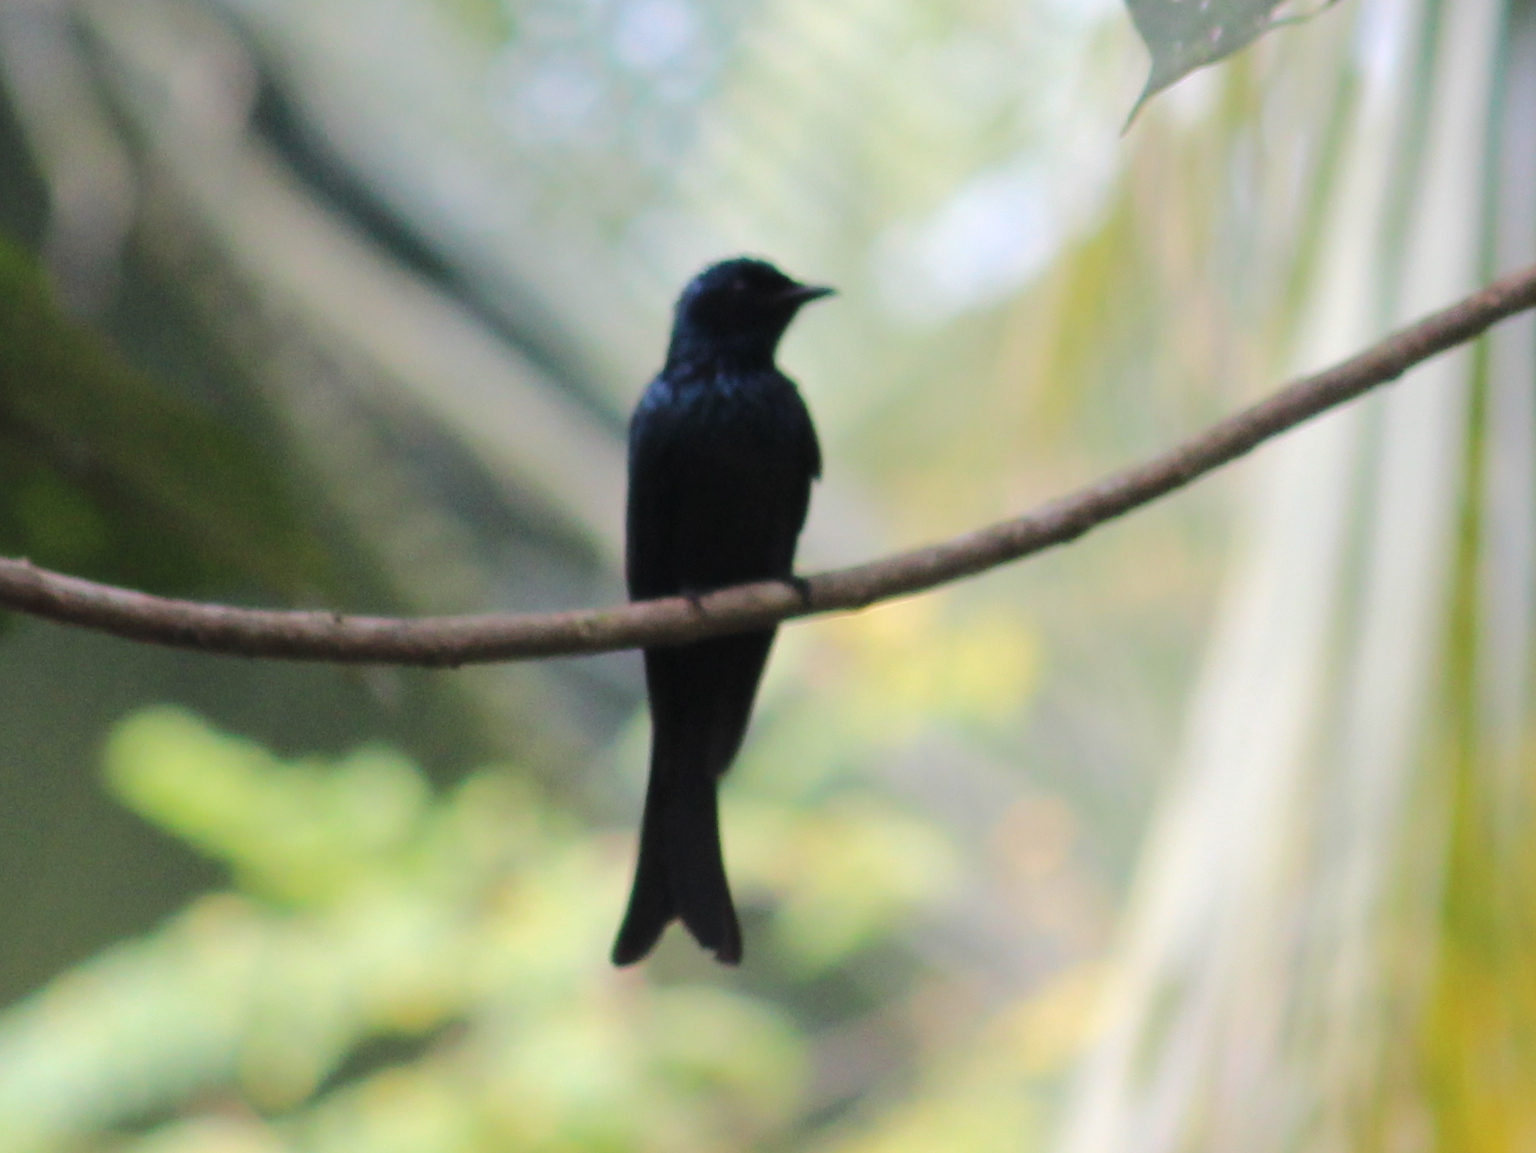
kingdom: Animalia
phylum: Chordata
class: Aves
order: Passeriformes
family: Dicruridae
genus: Dicrurus
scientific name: Dicrurus aeneus
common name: Bronzed drongo
